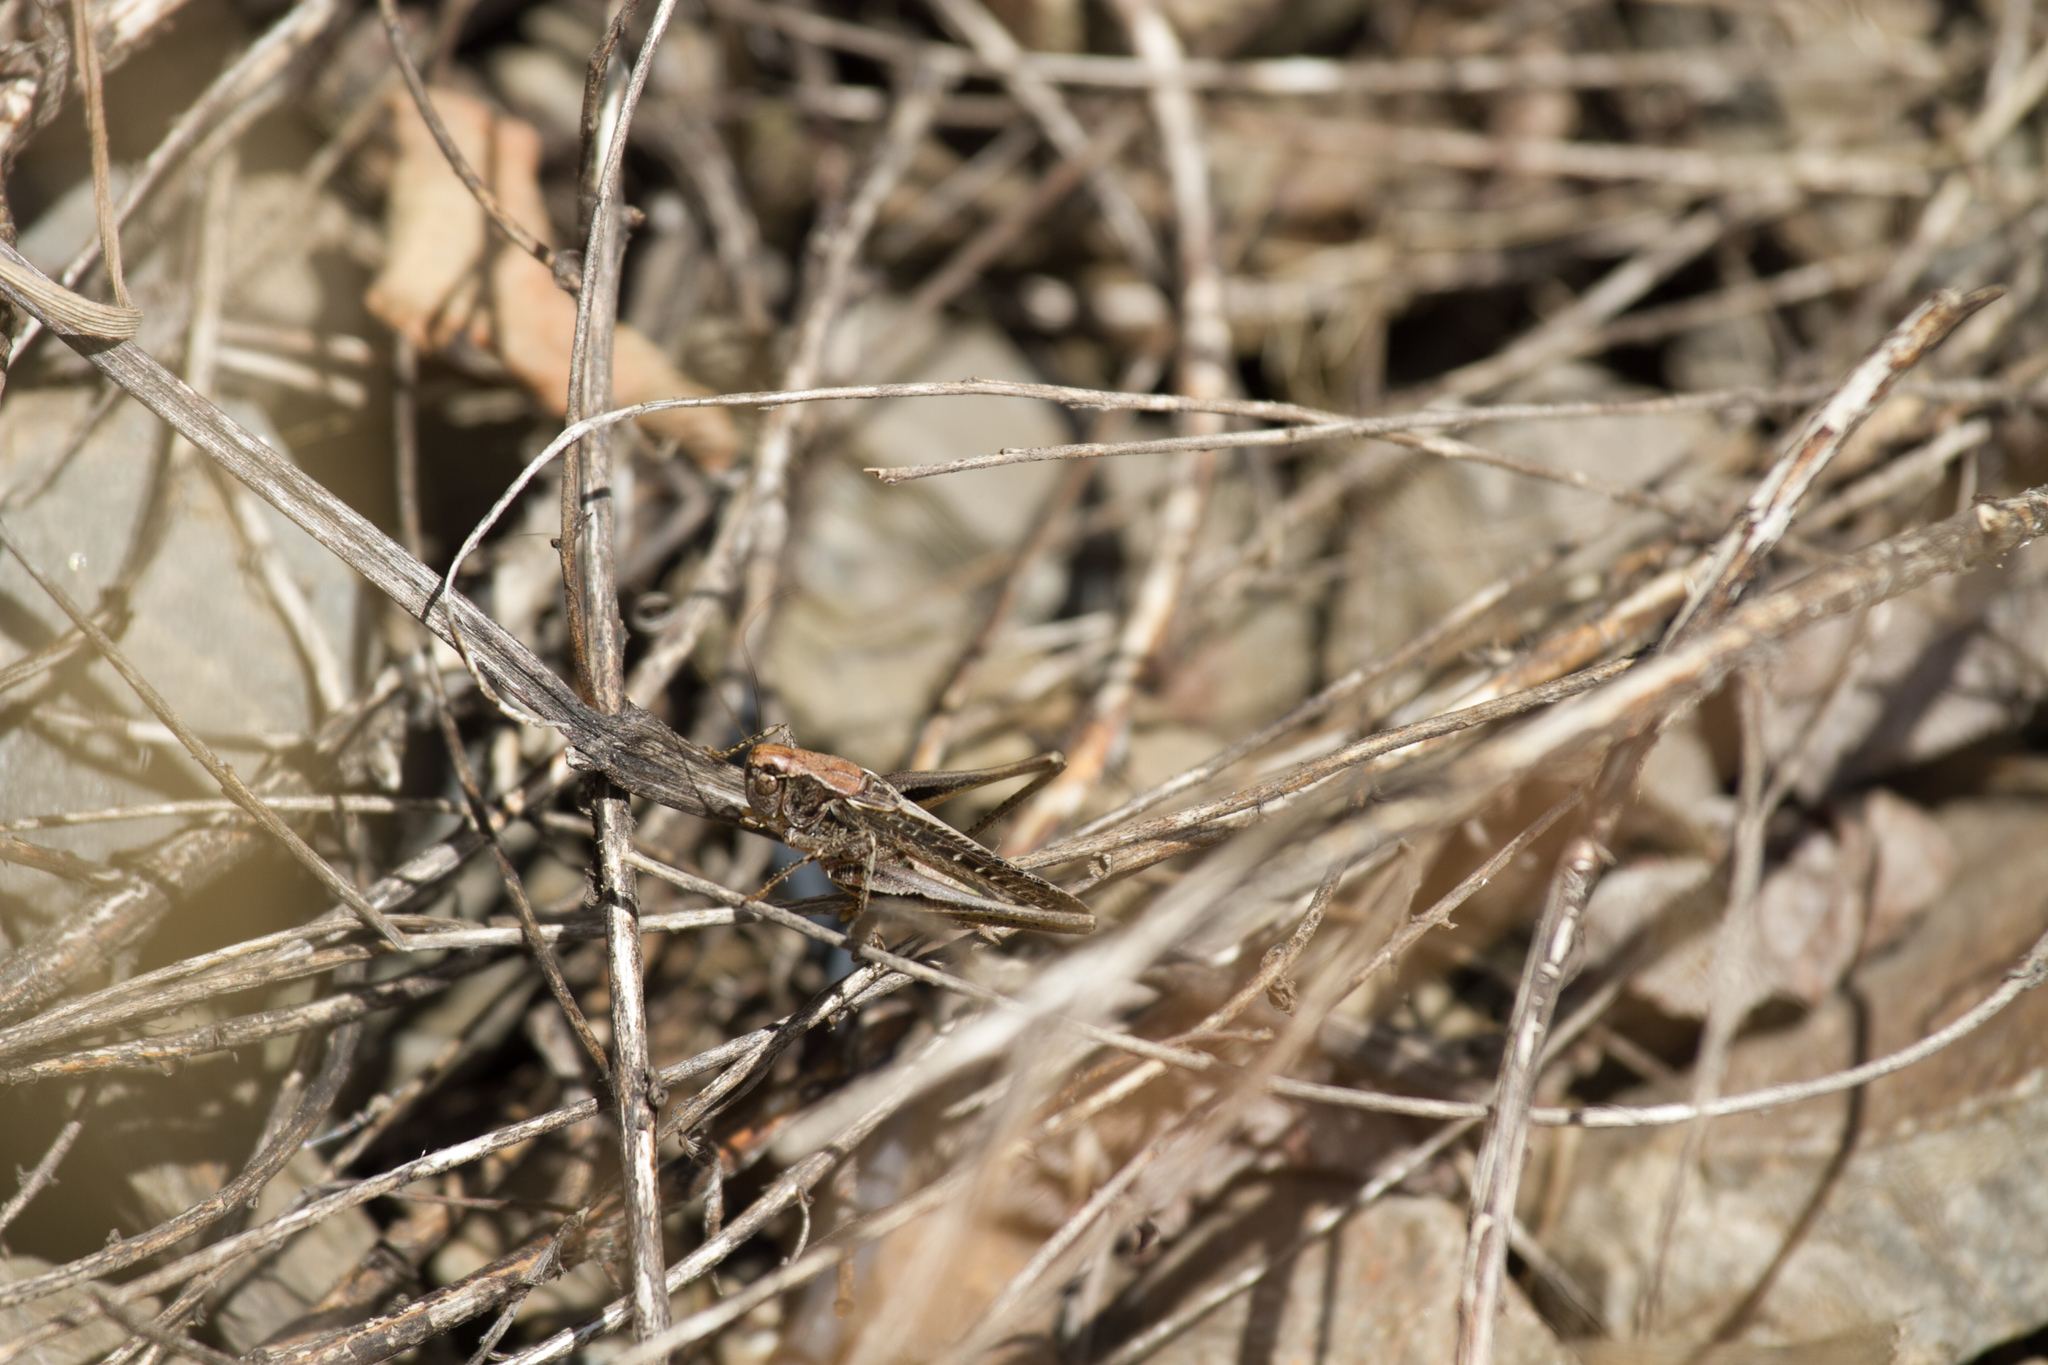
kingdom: Animalia
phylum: Arthropoda
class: Insecta
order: Orthoptera
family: Tettigoniidae
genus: Platycleis
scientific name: Platycleis albopunctata
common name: Grey bush-cricket
